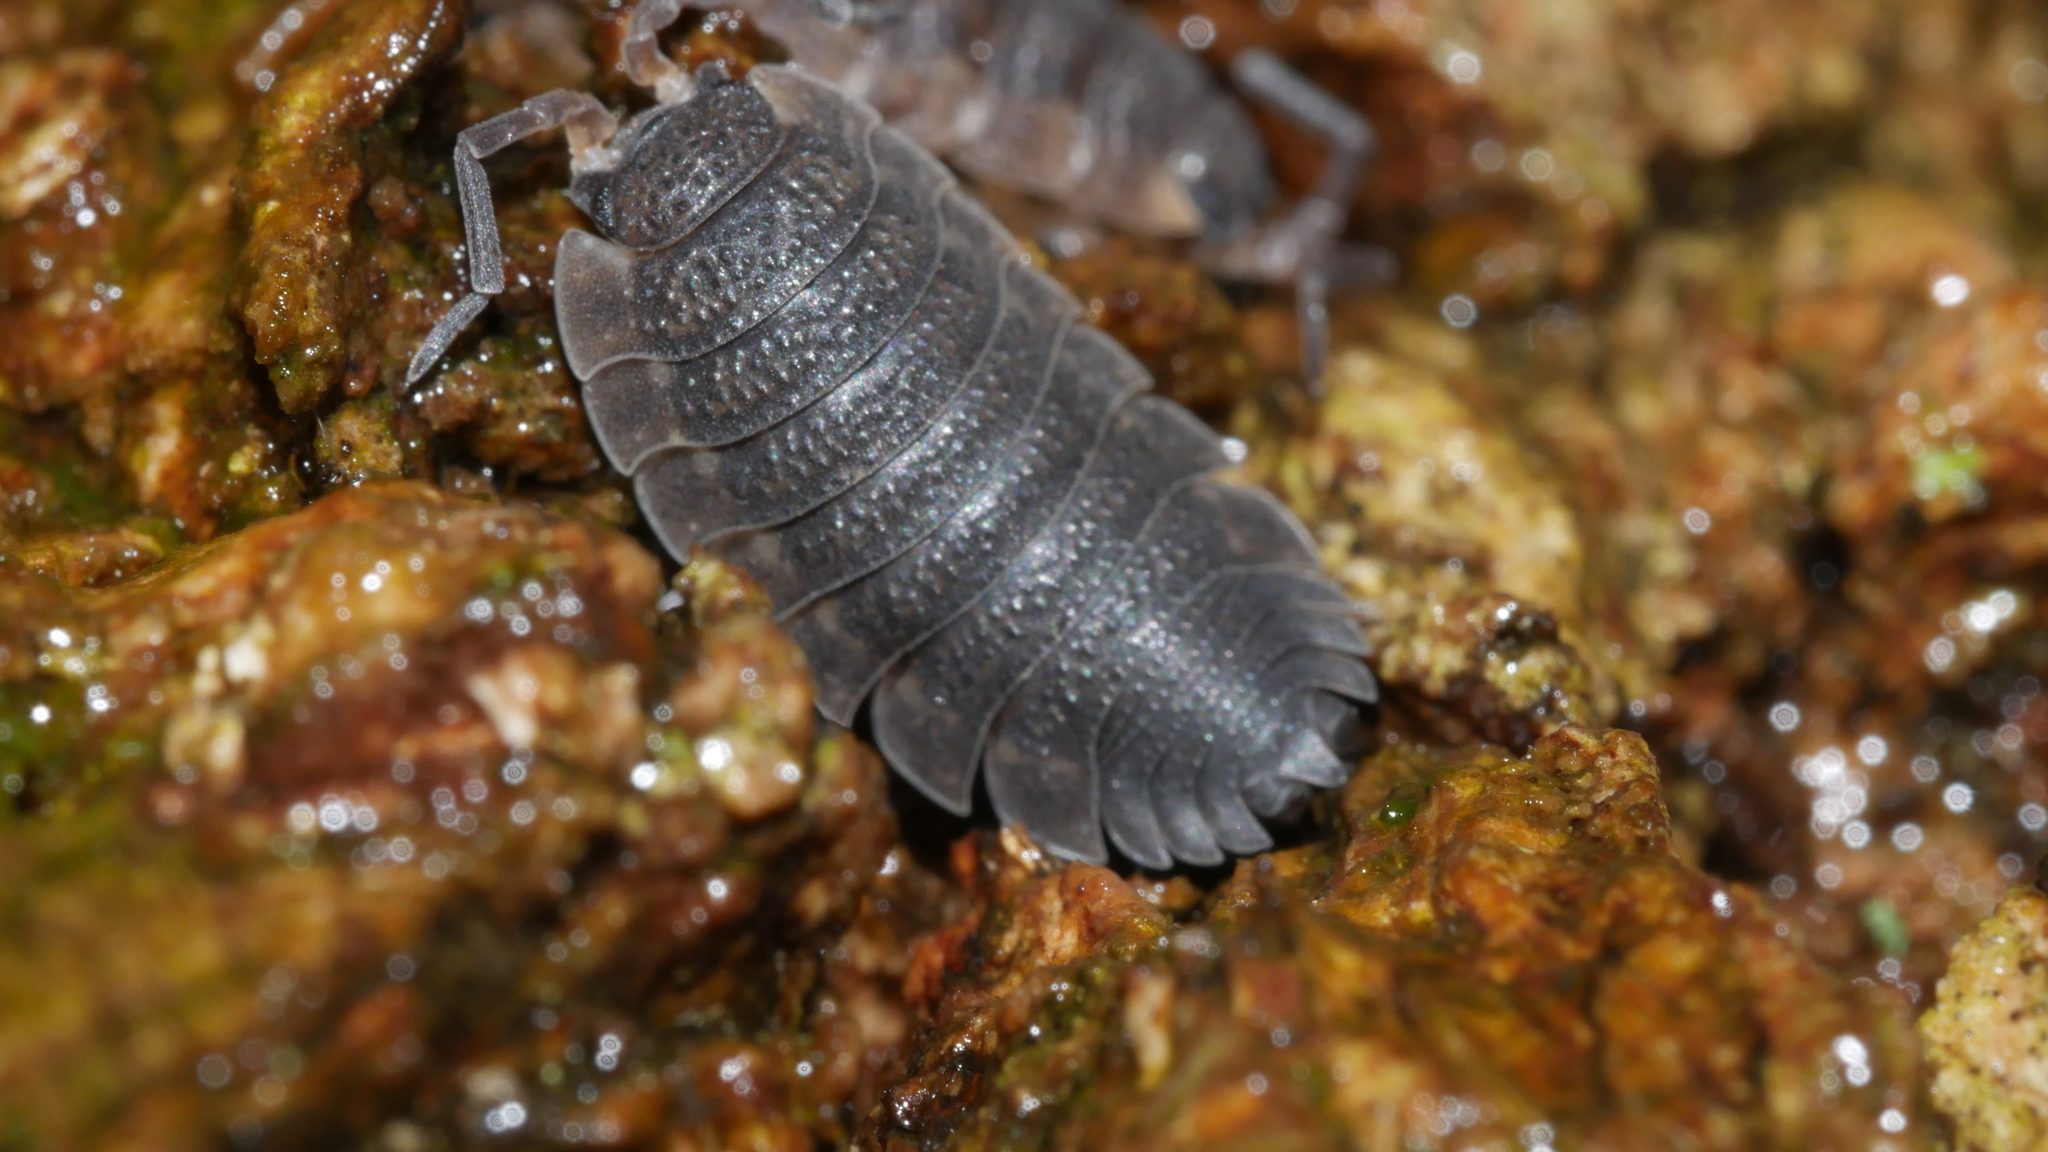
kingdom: Animalia
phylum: Arthropoda
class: Malacostraca
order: Isopoda
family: Porcellionidae
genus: Porcellio
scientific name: Porcellio scaber
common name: Common rough woodlouse
